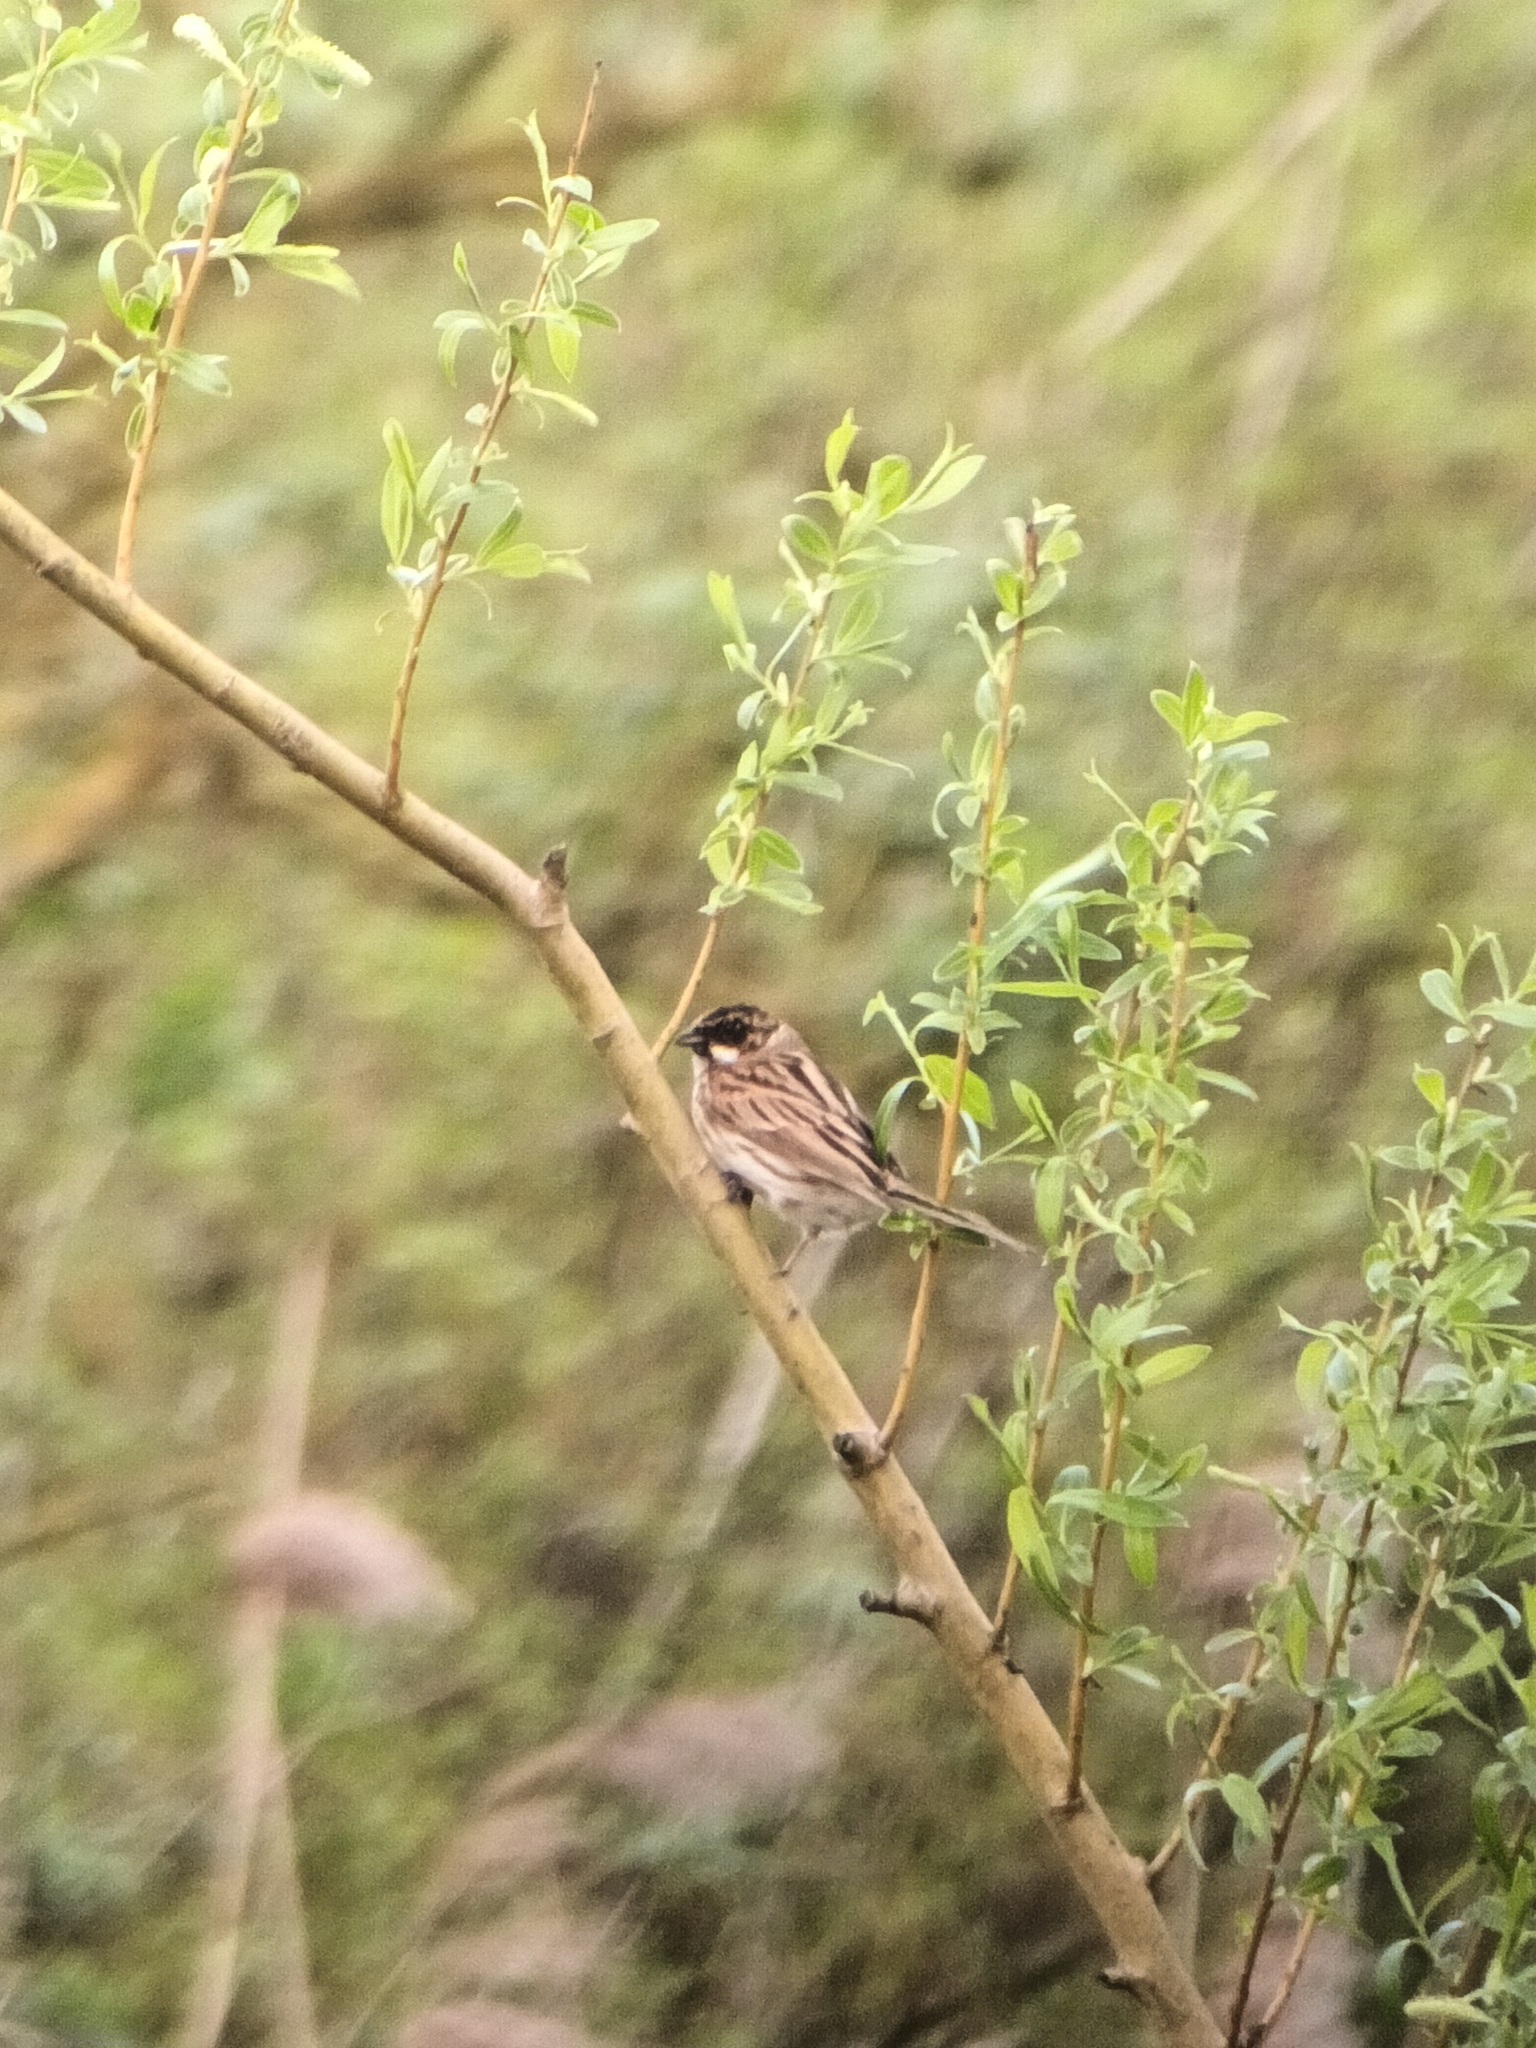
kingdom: Animalia
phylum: Chordata
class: Aves
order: Passeriformes
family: Emberizidae
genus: Emberiza
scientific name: Emberiza schoeniclus
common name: Reed bunting
